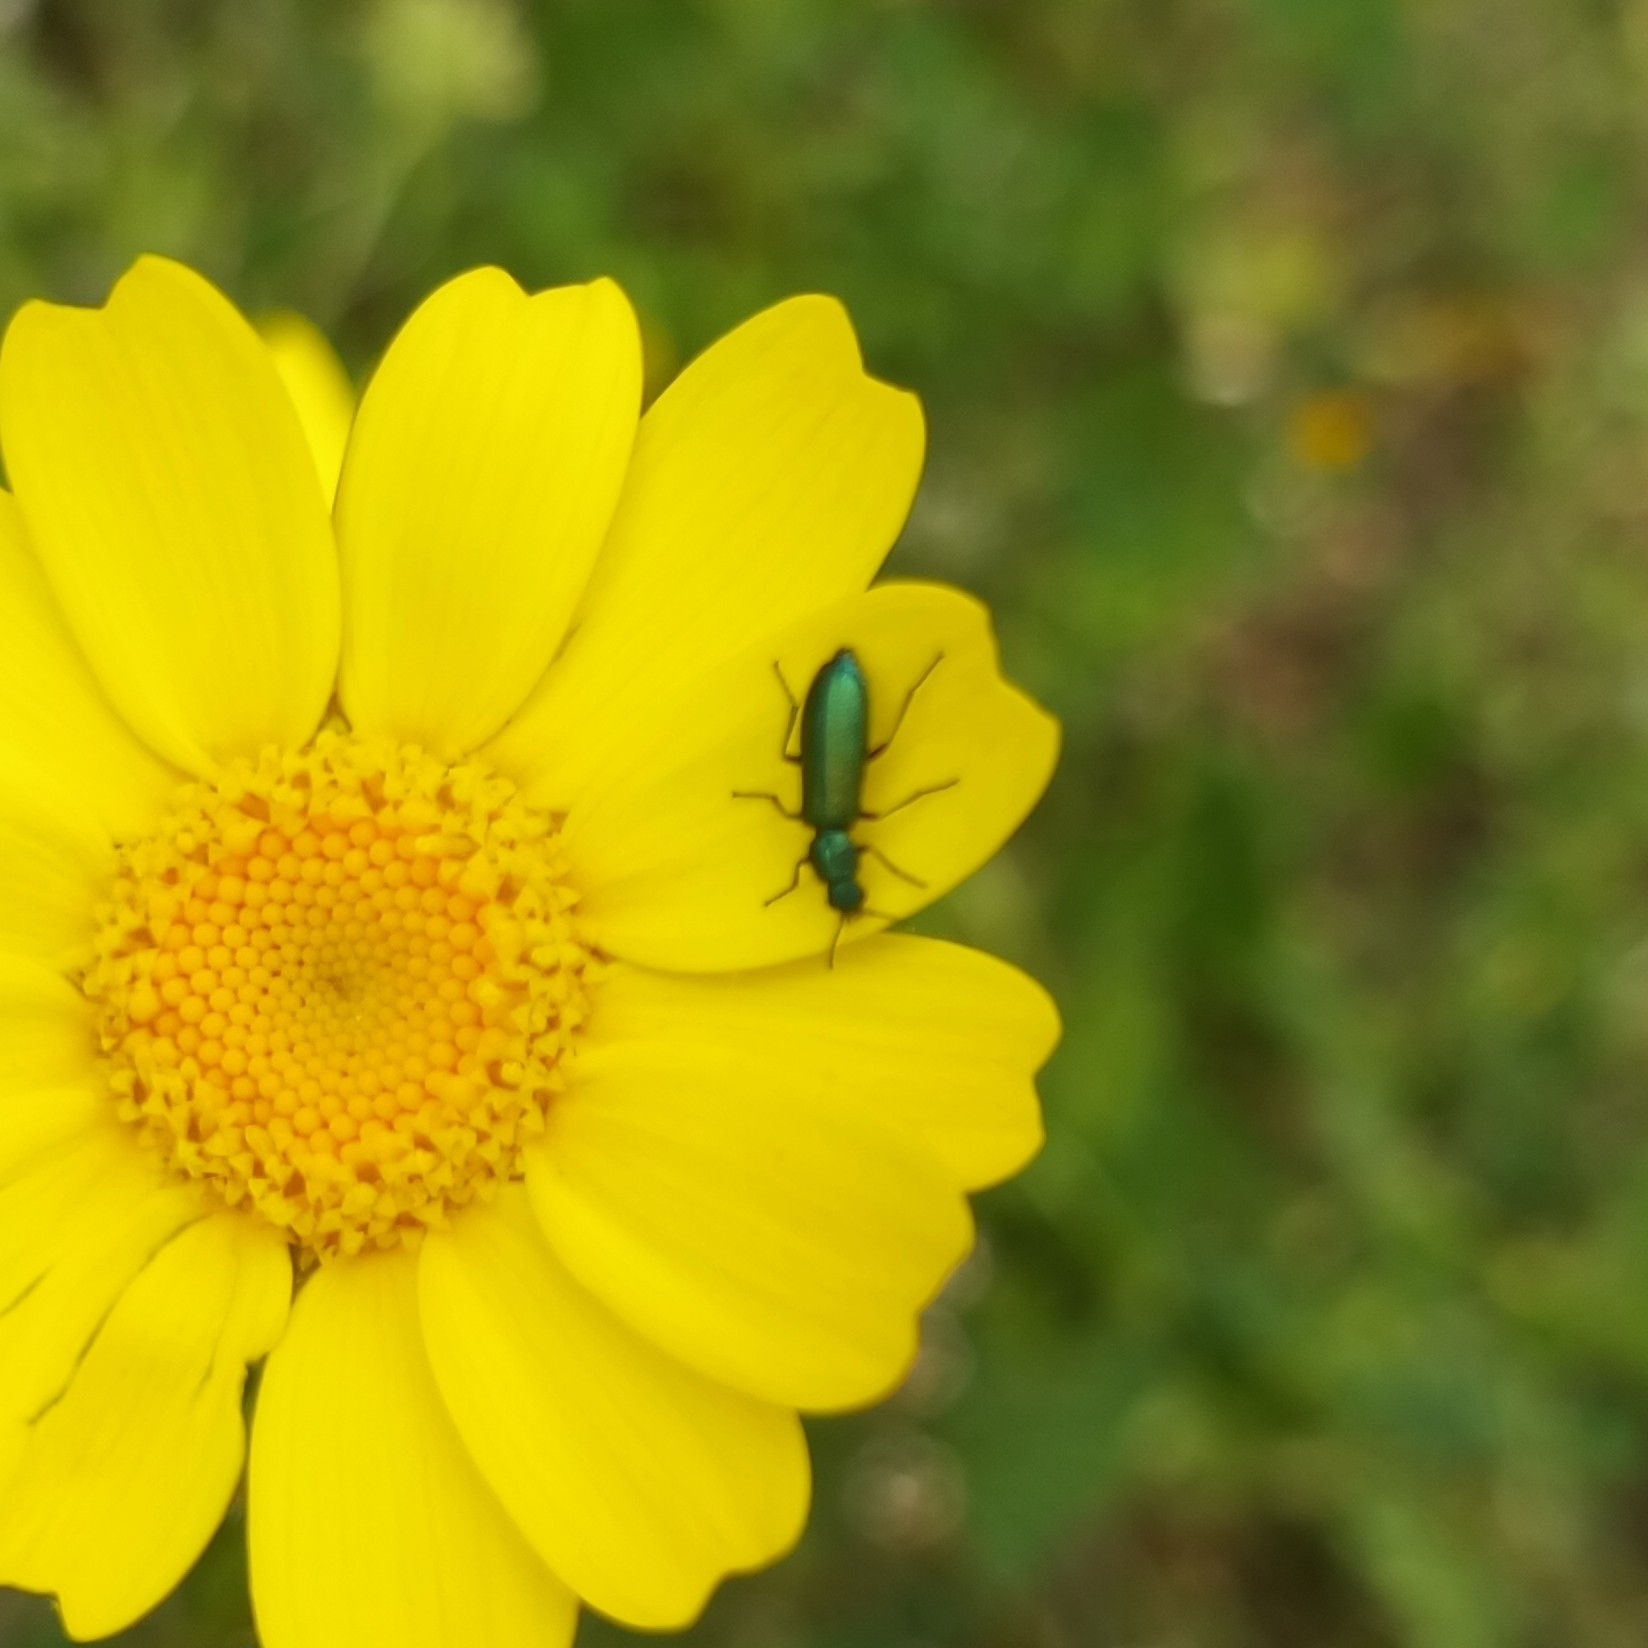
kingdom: Animalia
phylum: Arthropoda
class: Insecta
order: Coleoptera
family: Dasytidae
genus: Psilothrix
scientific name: Psilothrix viridicoerulea
